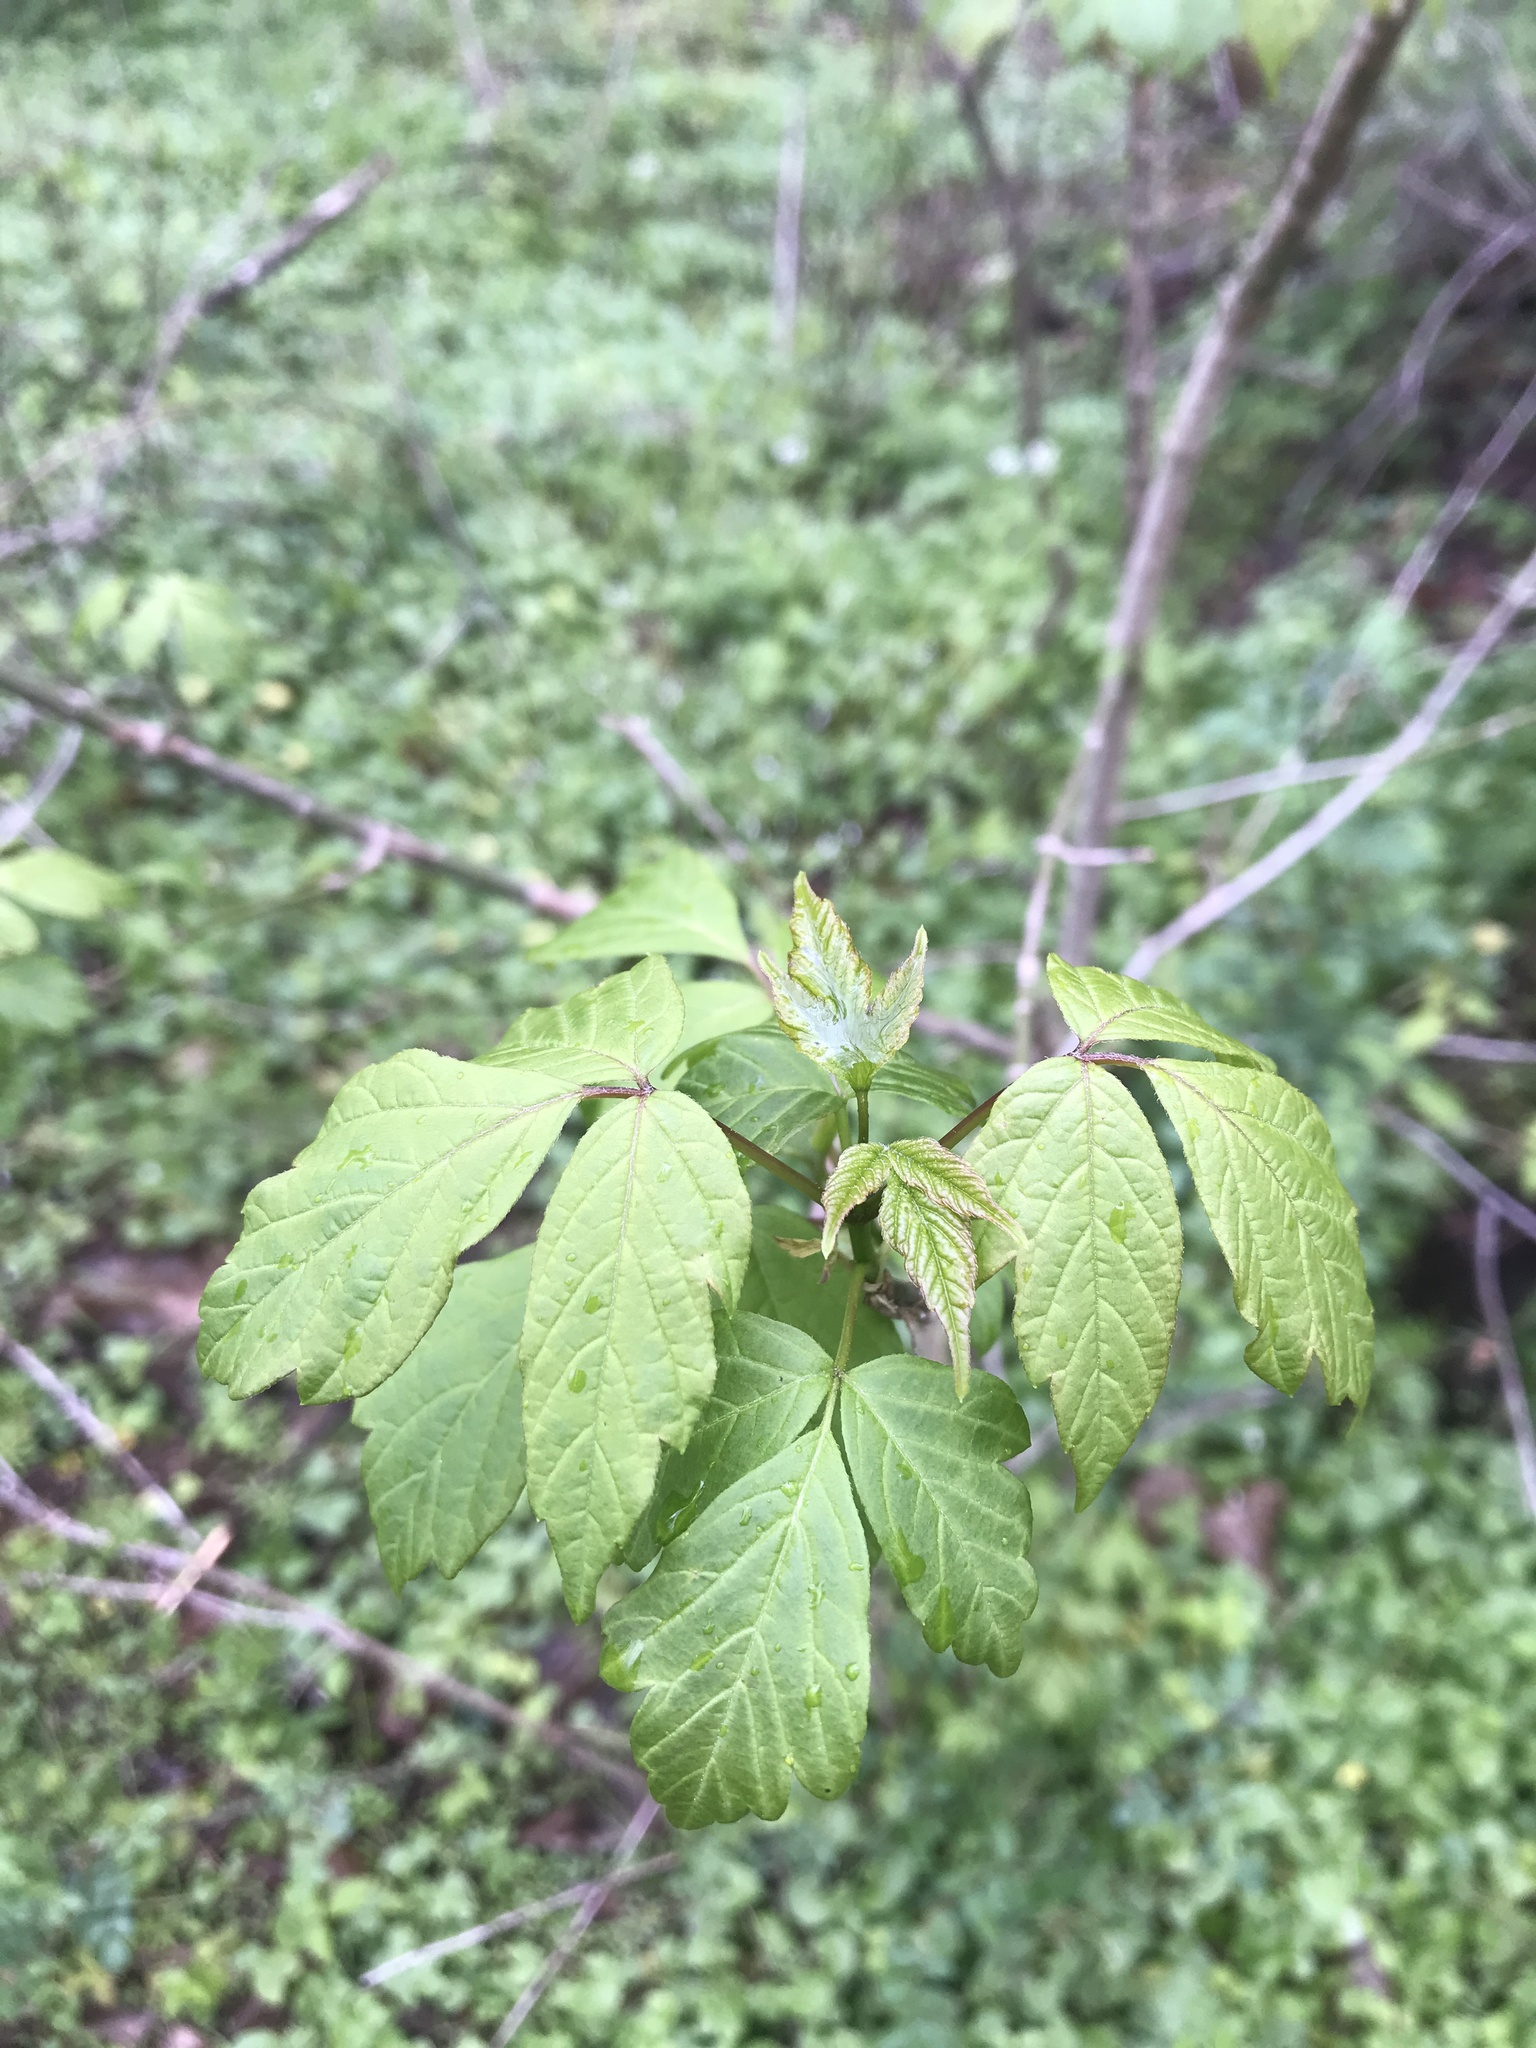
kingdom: Plantae
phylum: Tracheophyta
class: Magnoliopsida
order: Sapindales
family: Sapindaceae
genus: Acer
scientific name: Acer negundo
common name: Ashleaf maple
